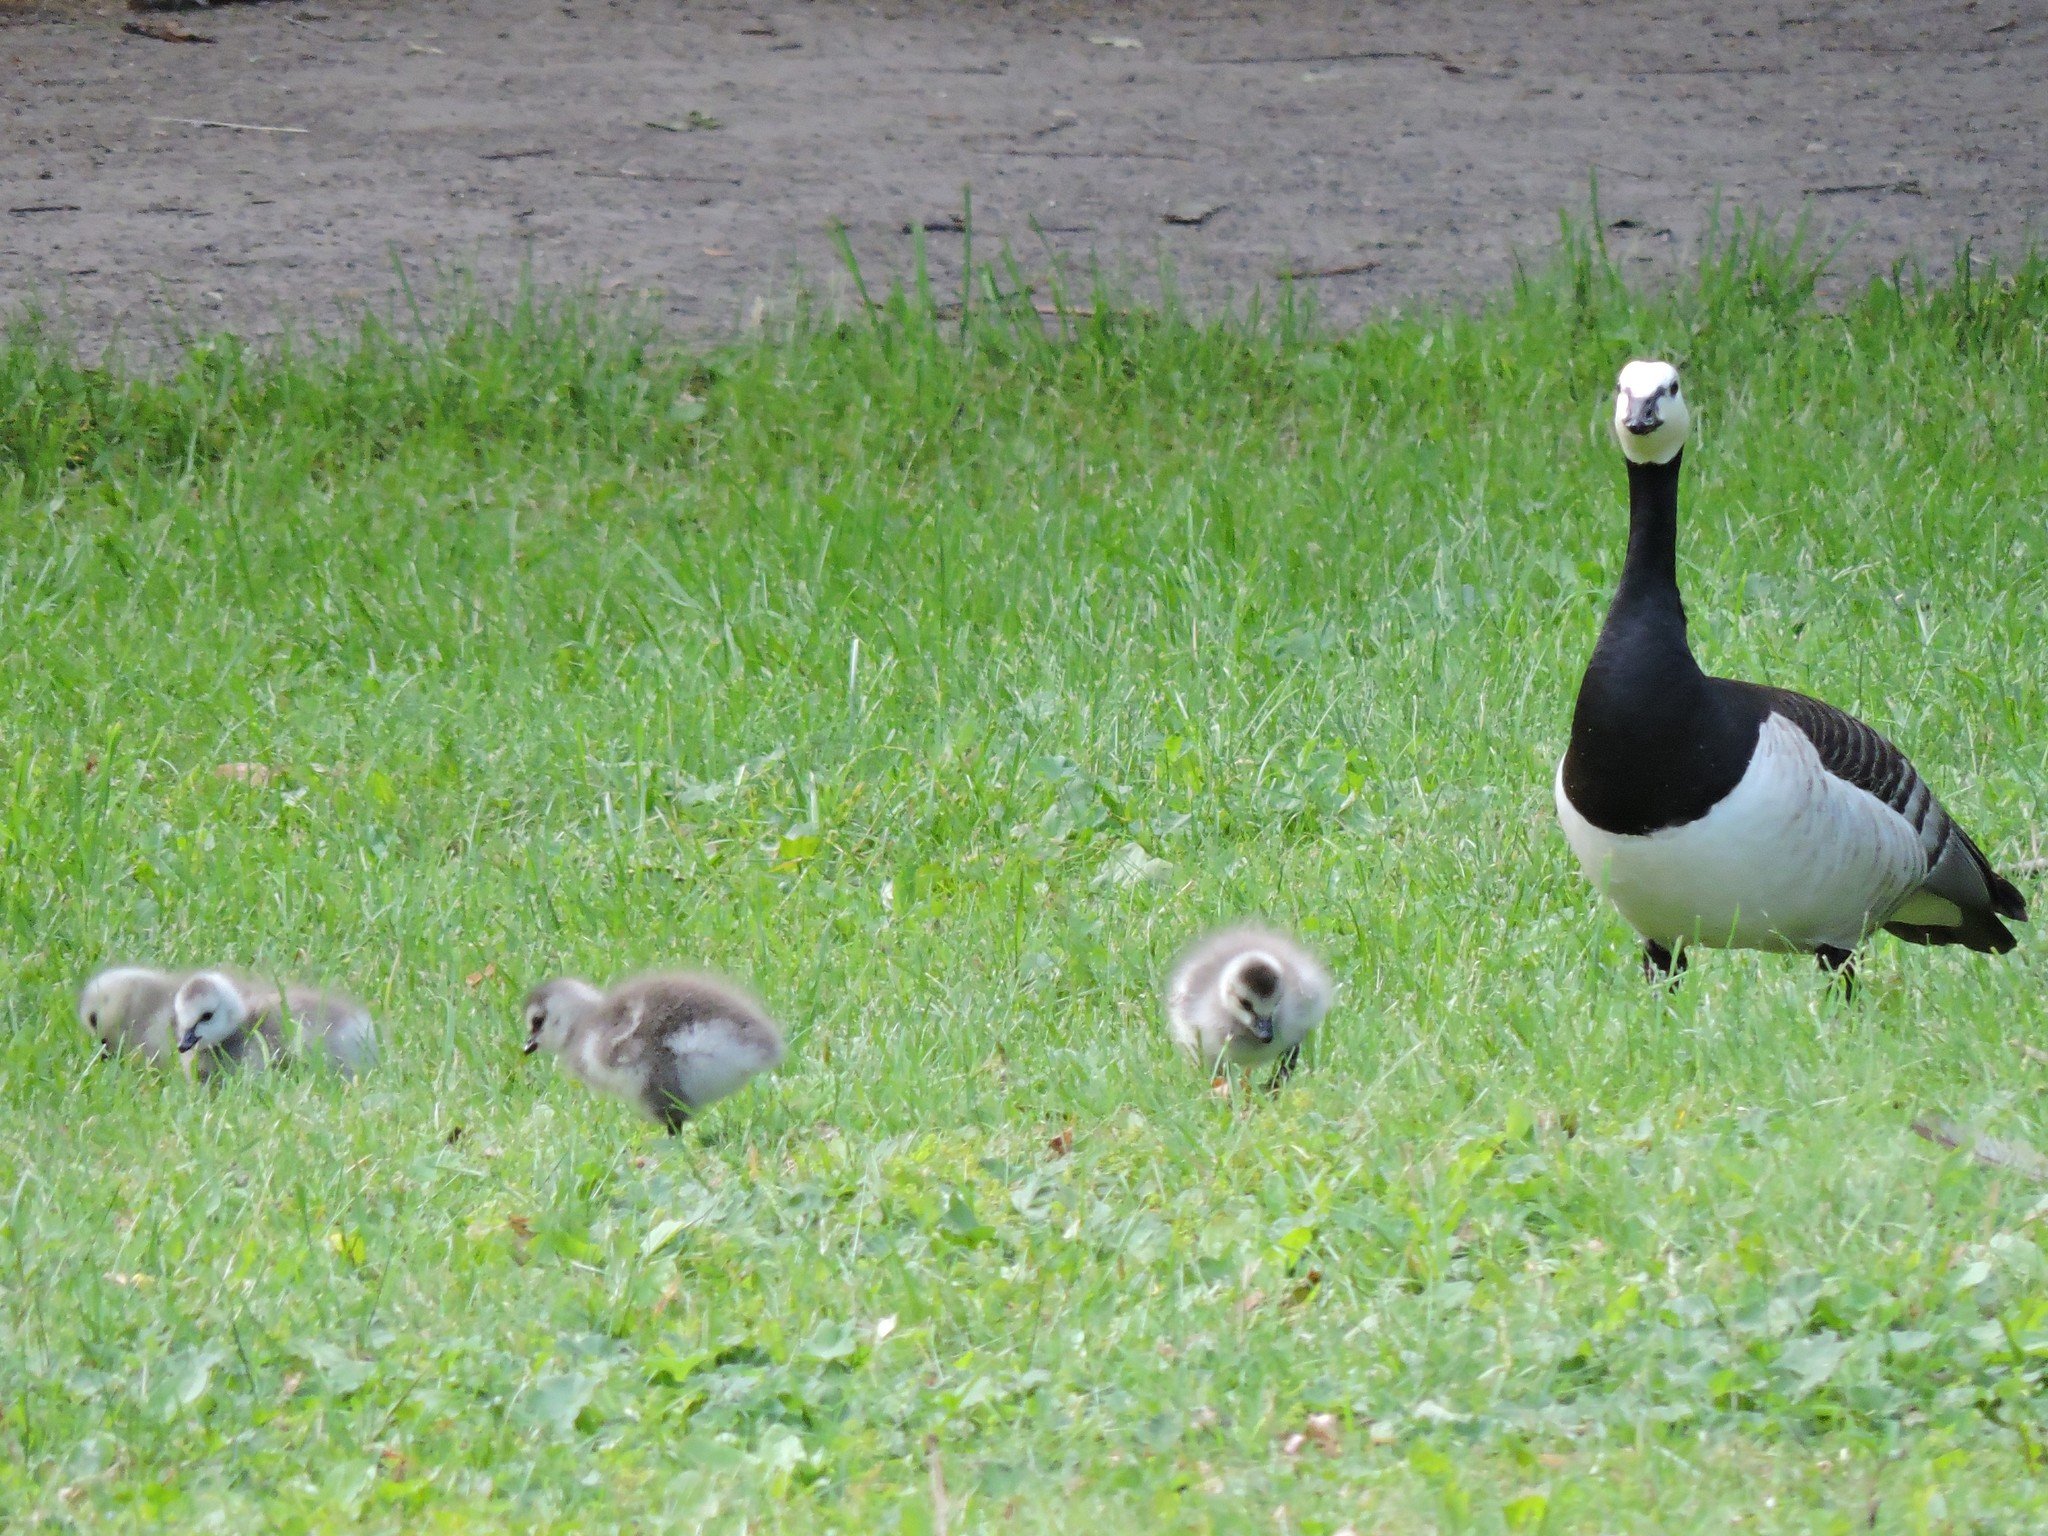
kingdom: Animalia
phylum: Chordata
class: Aves
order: Anseriformes
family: Anatidae
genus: Branta
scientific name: Branta leucopsis
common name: Barnacle goose
